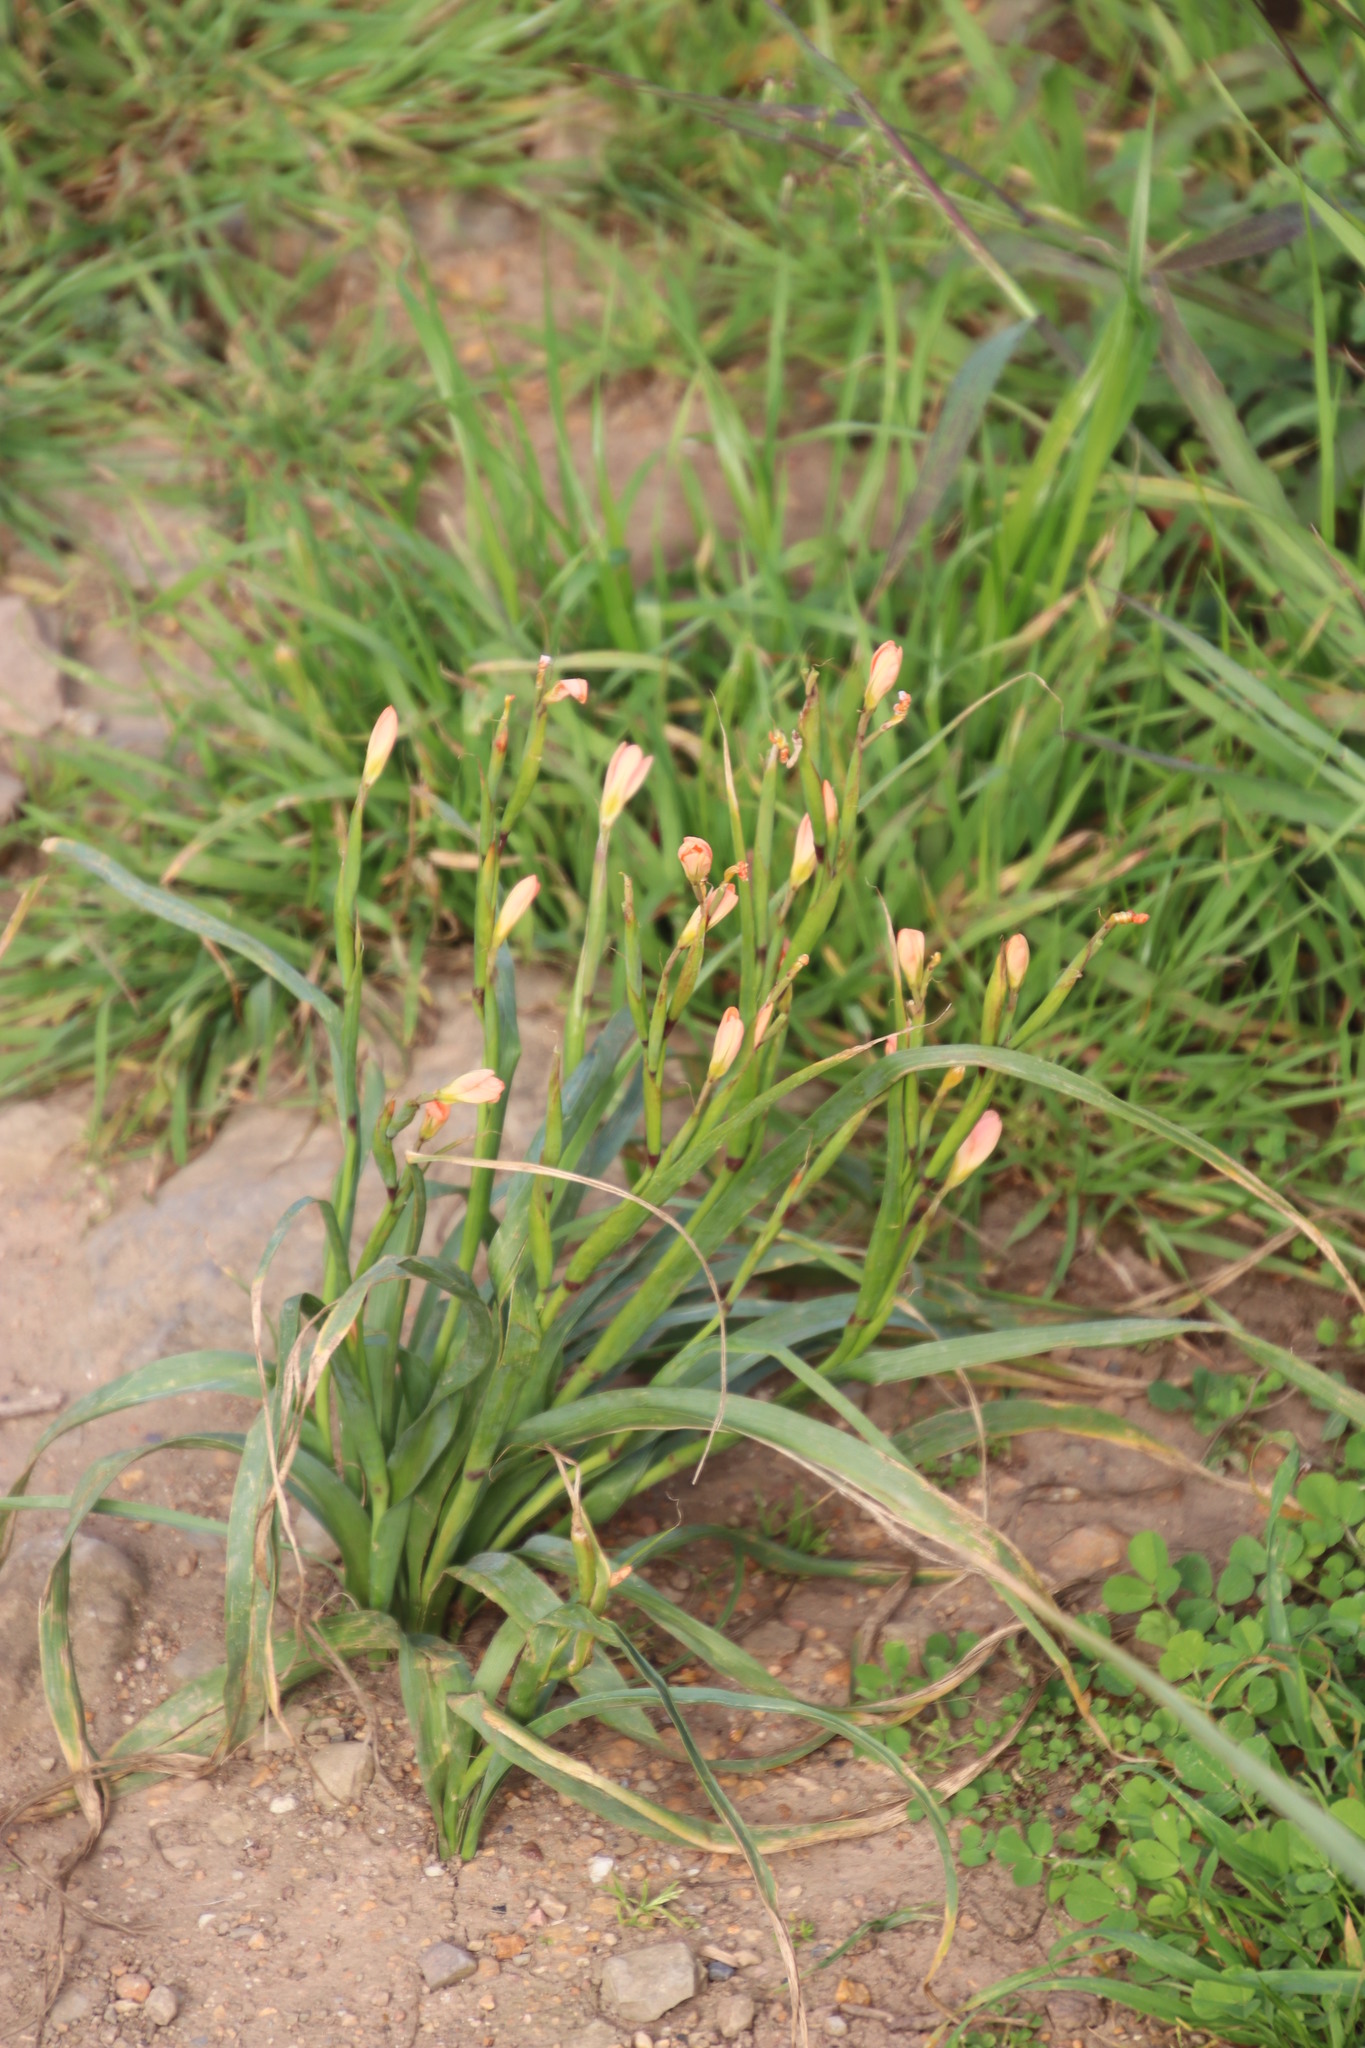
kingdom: Plantae
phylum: Tracheophyta
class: Liliopsida
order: Asparagales
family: Iridaceae
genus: Moraea
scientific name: Moraea miniata
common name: Two-leaf cape-tulip
